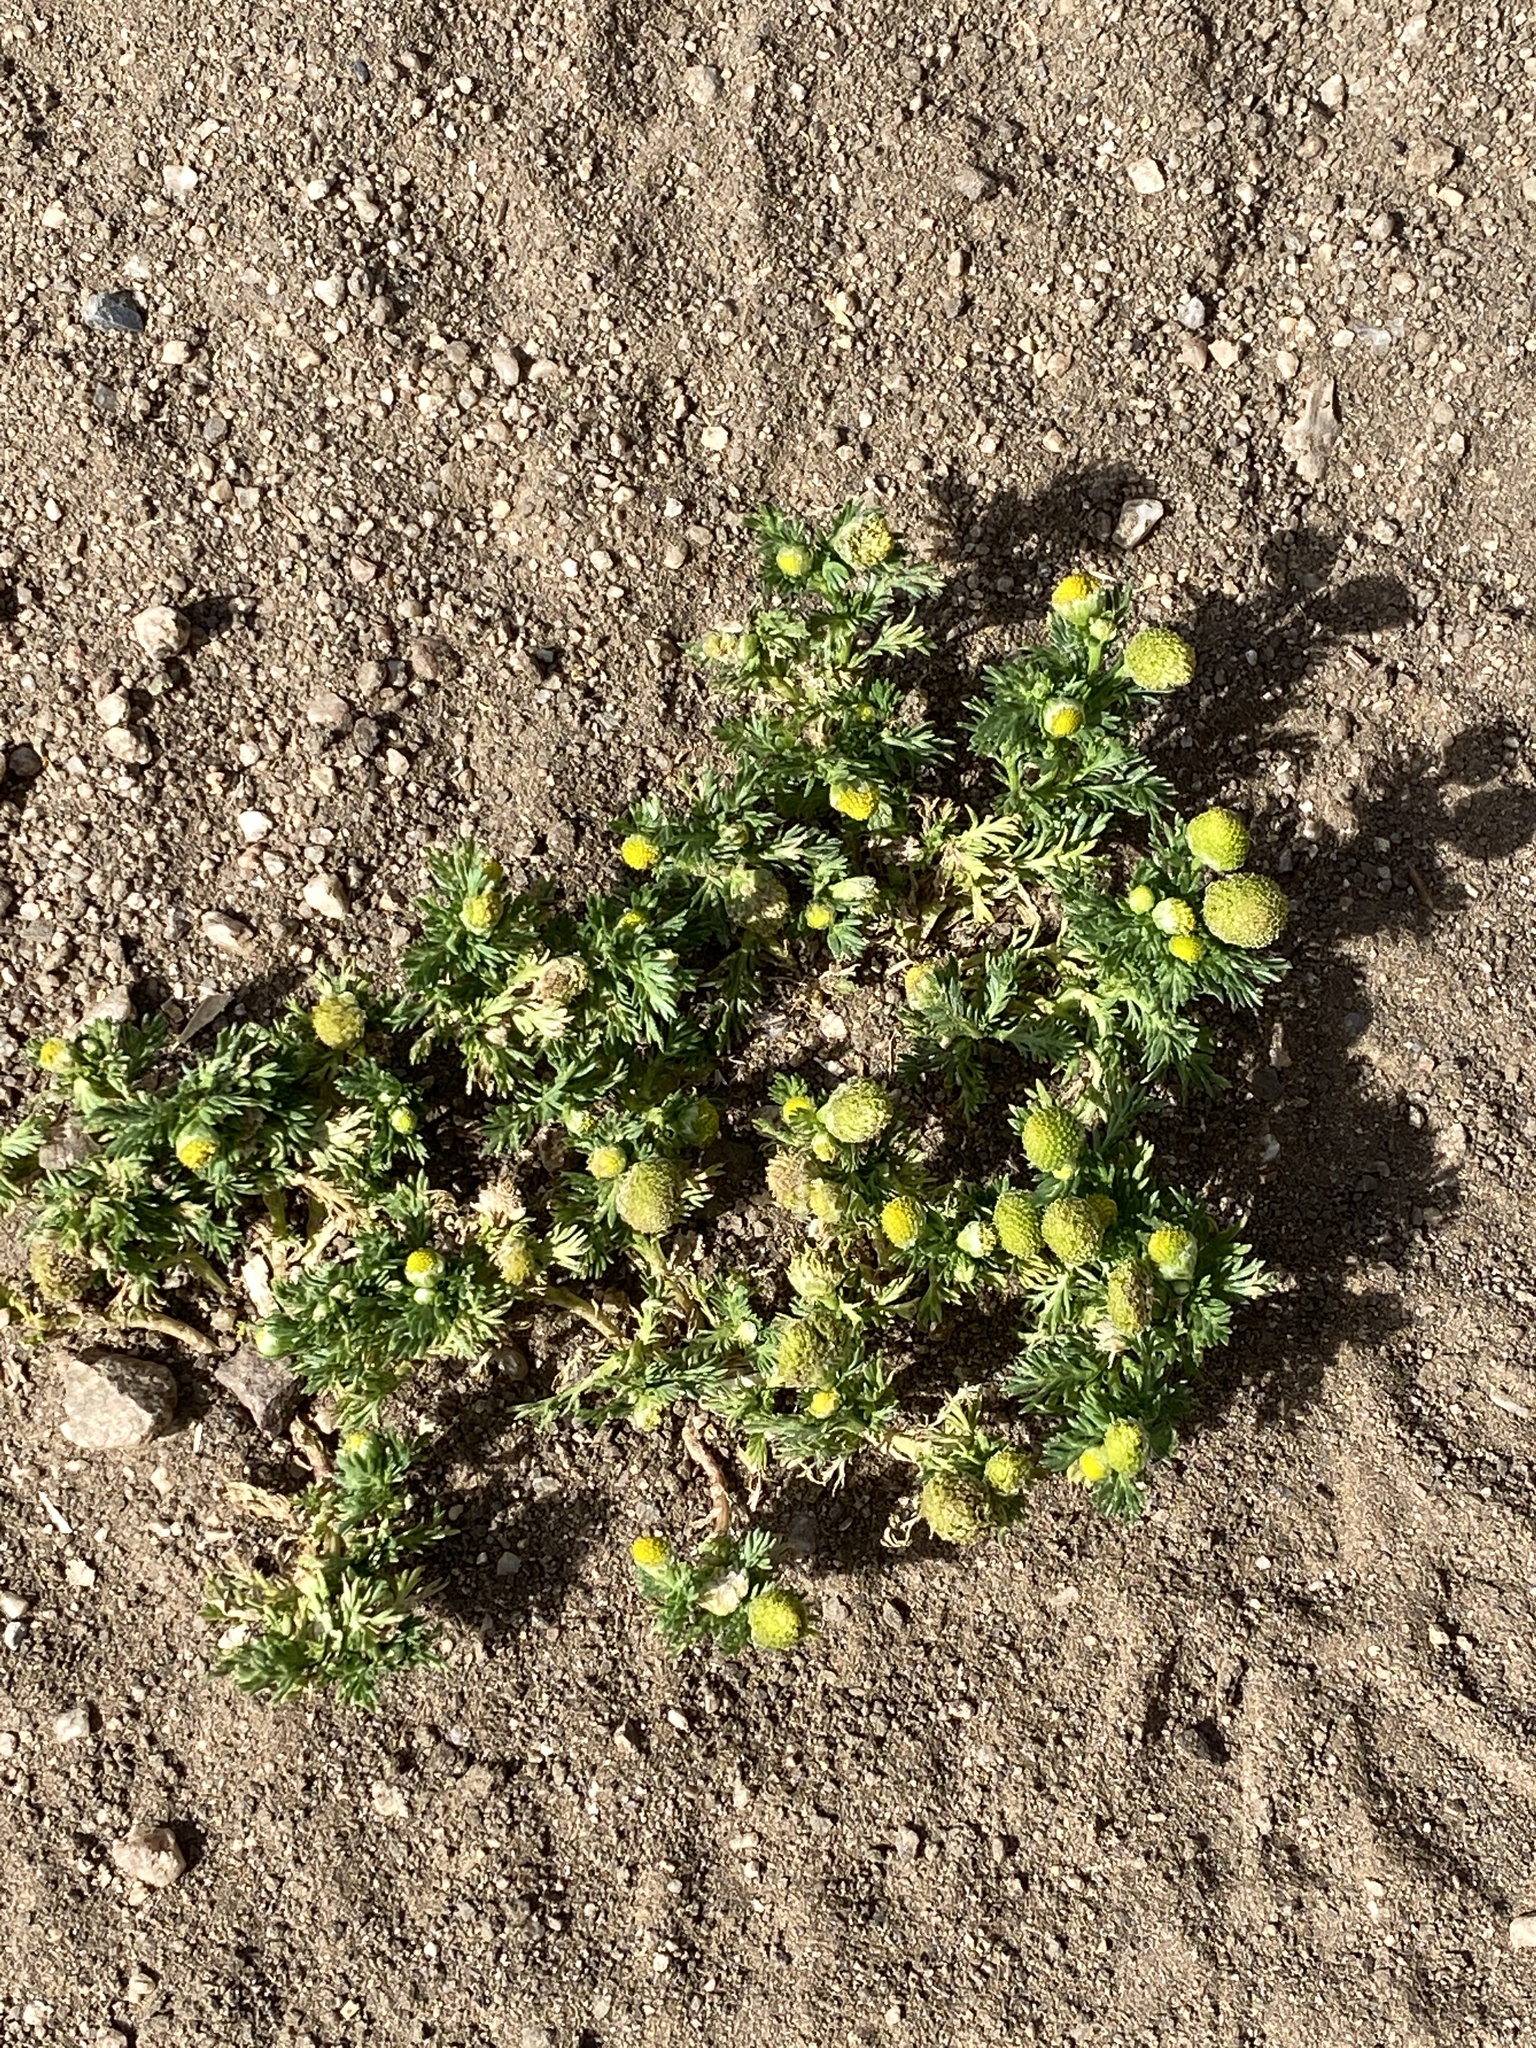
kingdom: Plantae
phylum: Tracheophyta
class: Magnoliopsida
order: Asterales
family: Asteraceae
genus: Matricaria
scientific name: Matricaria discoidea
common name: Disc mayweed
